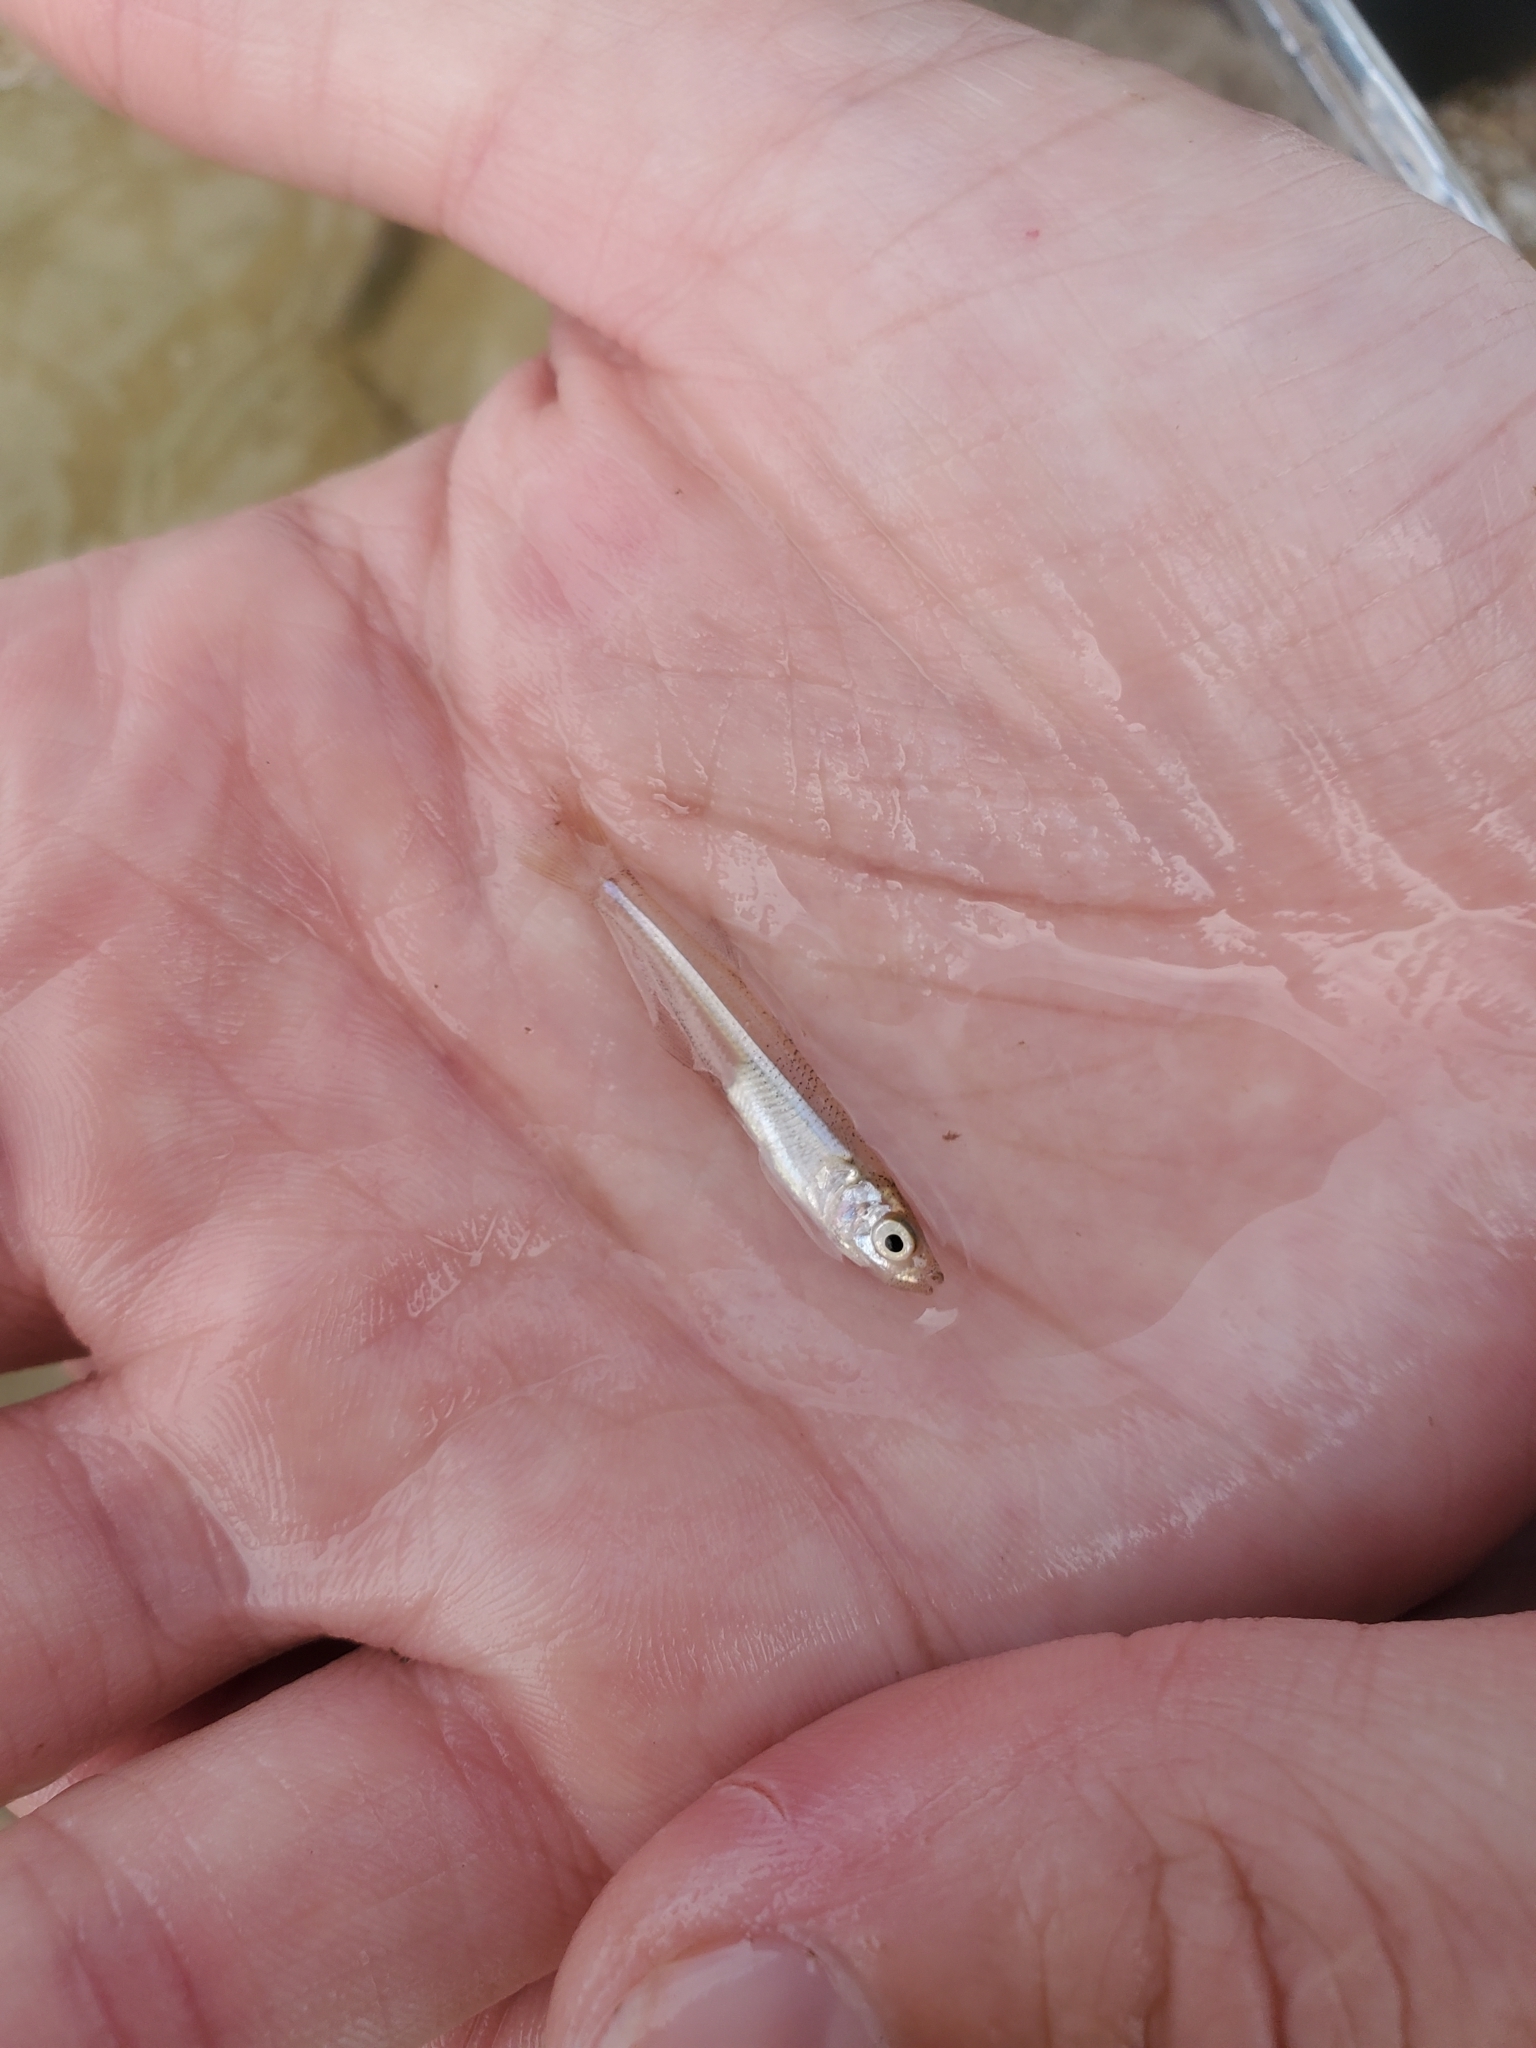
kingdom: Animalia
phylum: Chordata
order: Atheriniformes
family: Atherinopsidae
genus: Menidia
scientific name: Menidia menidia
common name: Atlantic silverside
